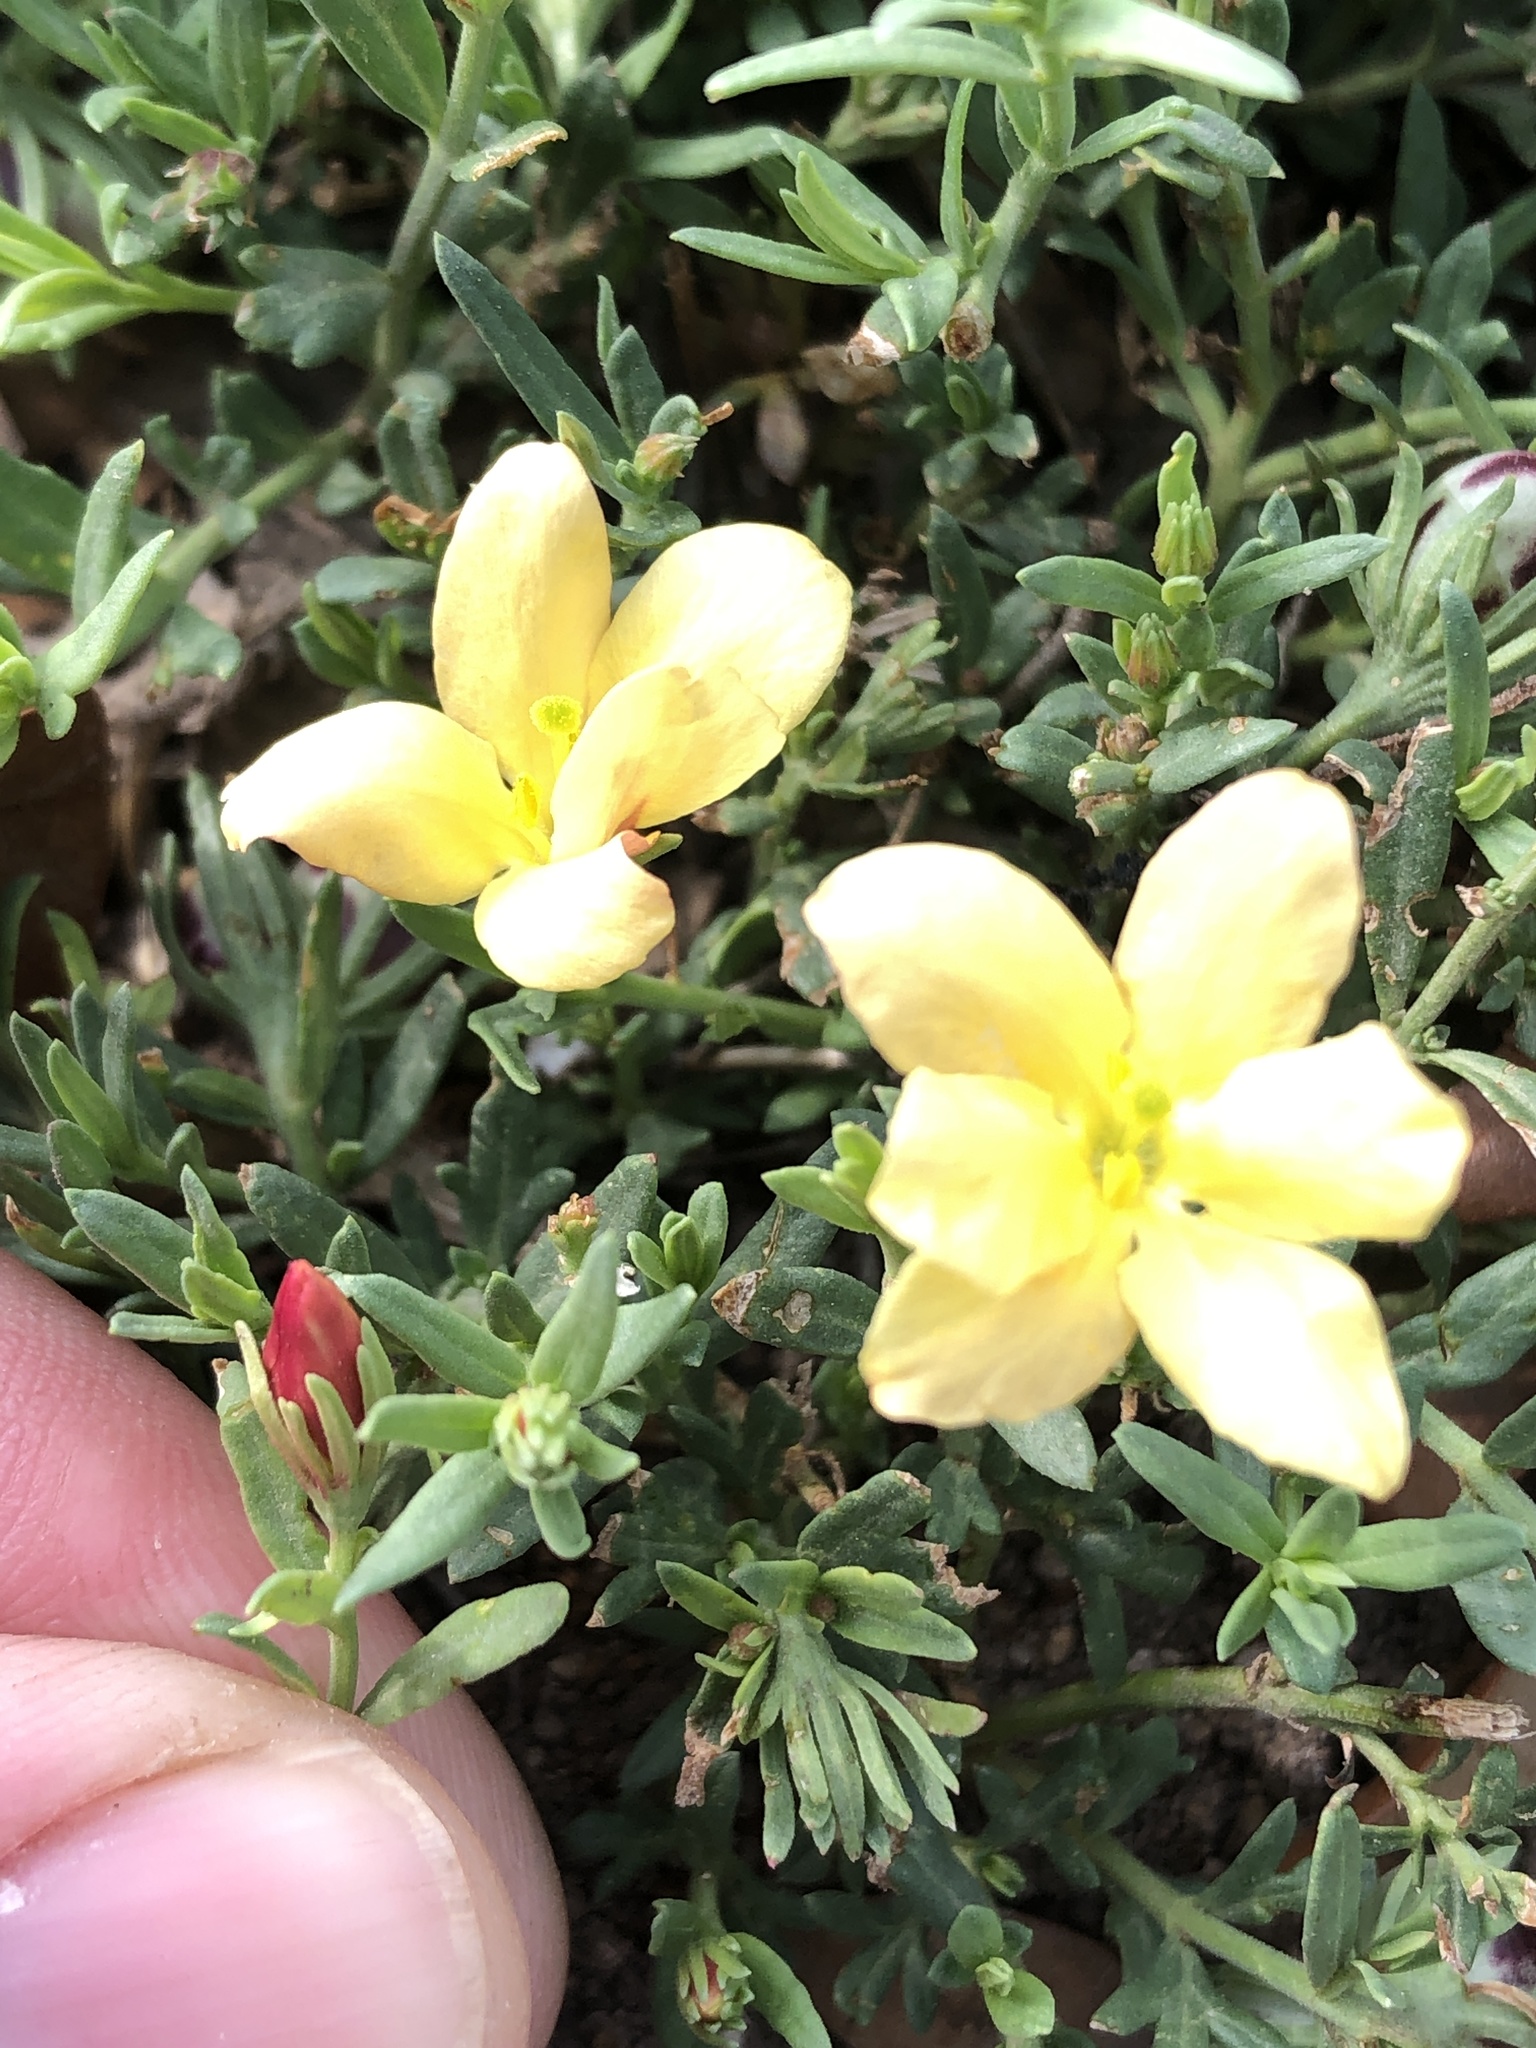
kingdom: Plantae
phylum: Tracheophyta
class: Magnoliopsida
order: Lamiales
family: Oleaceae
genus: Menodora
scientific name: Menodora heterophylla
